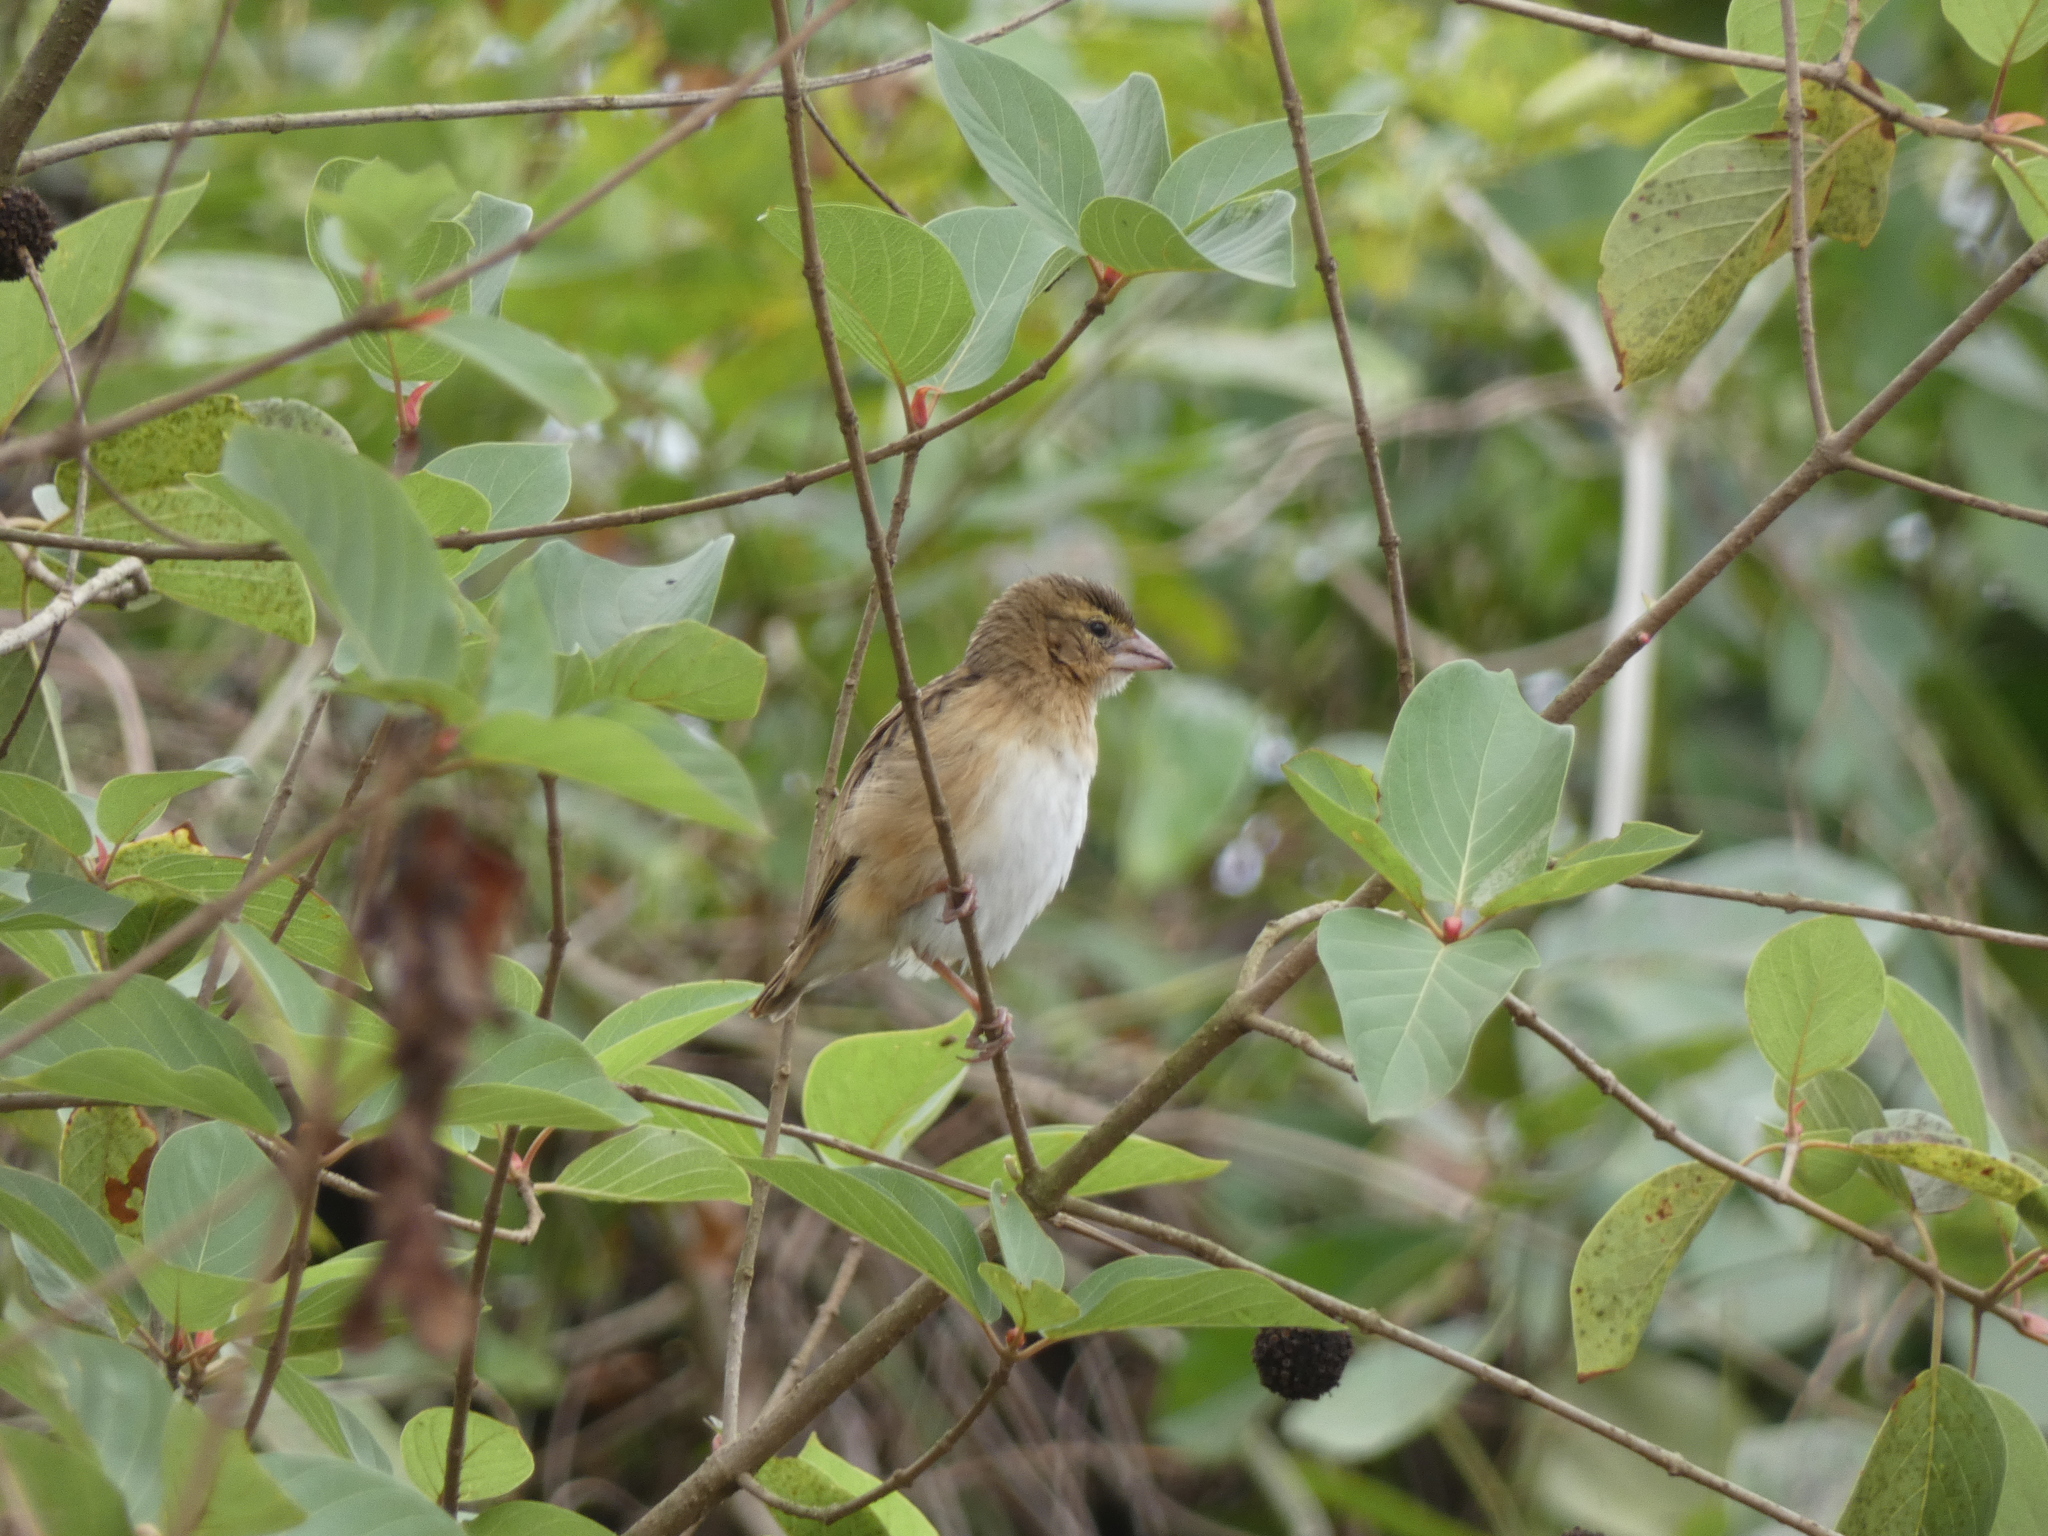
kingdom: Animalia
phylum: Chordata
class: Aves
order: Passeriformes
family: Ploceidae
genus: Euplectes
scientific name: Euplectes franciscanus
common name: Northern red bishop
